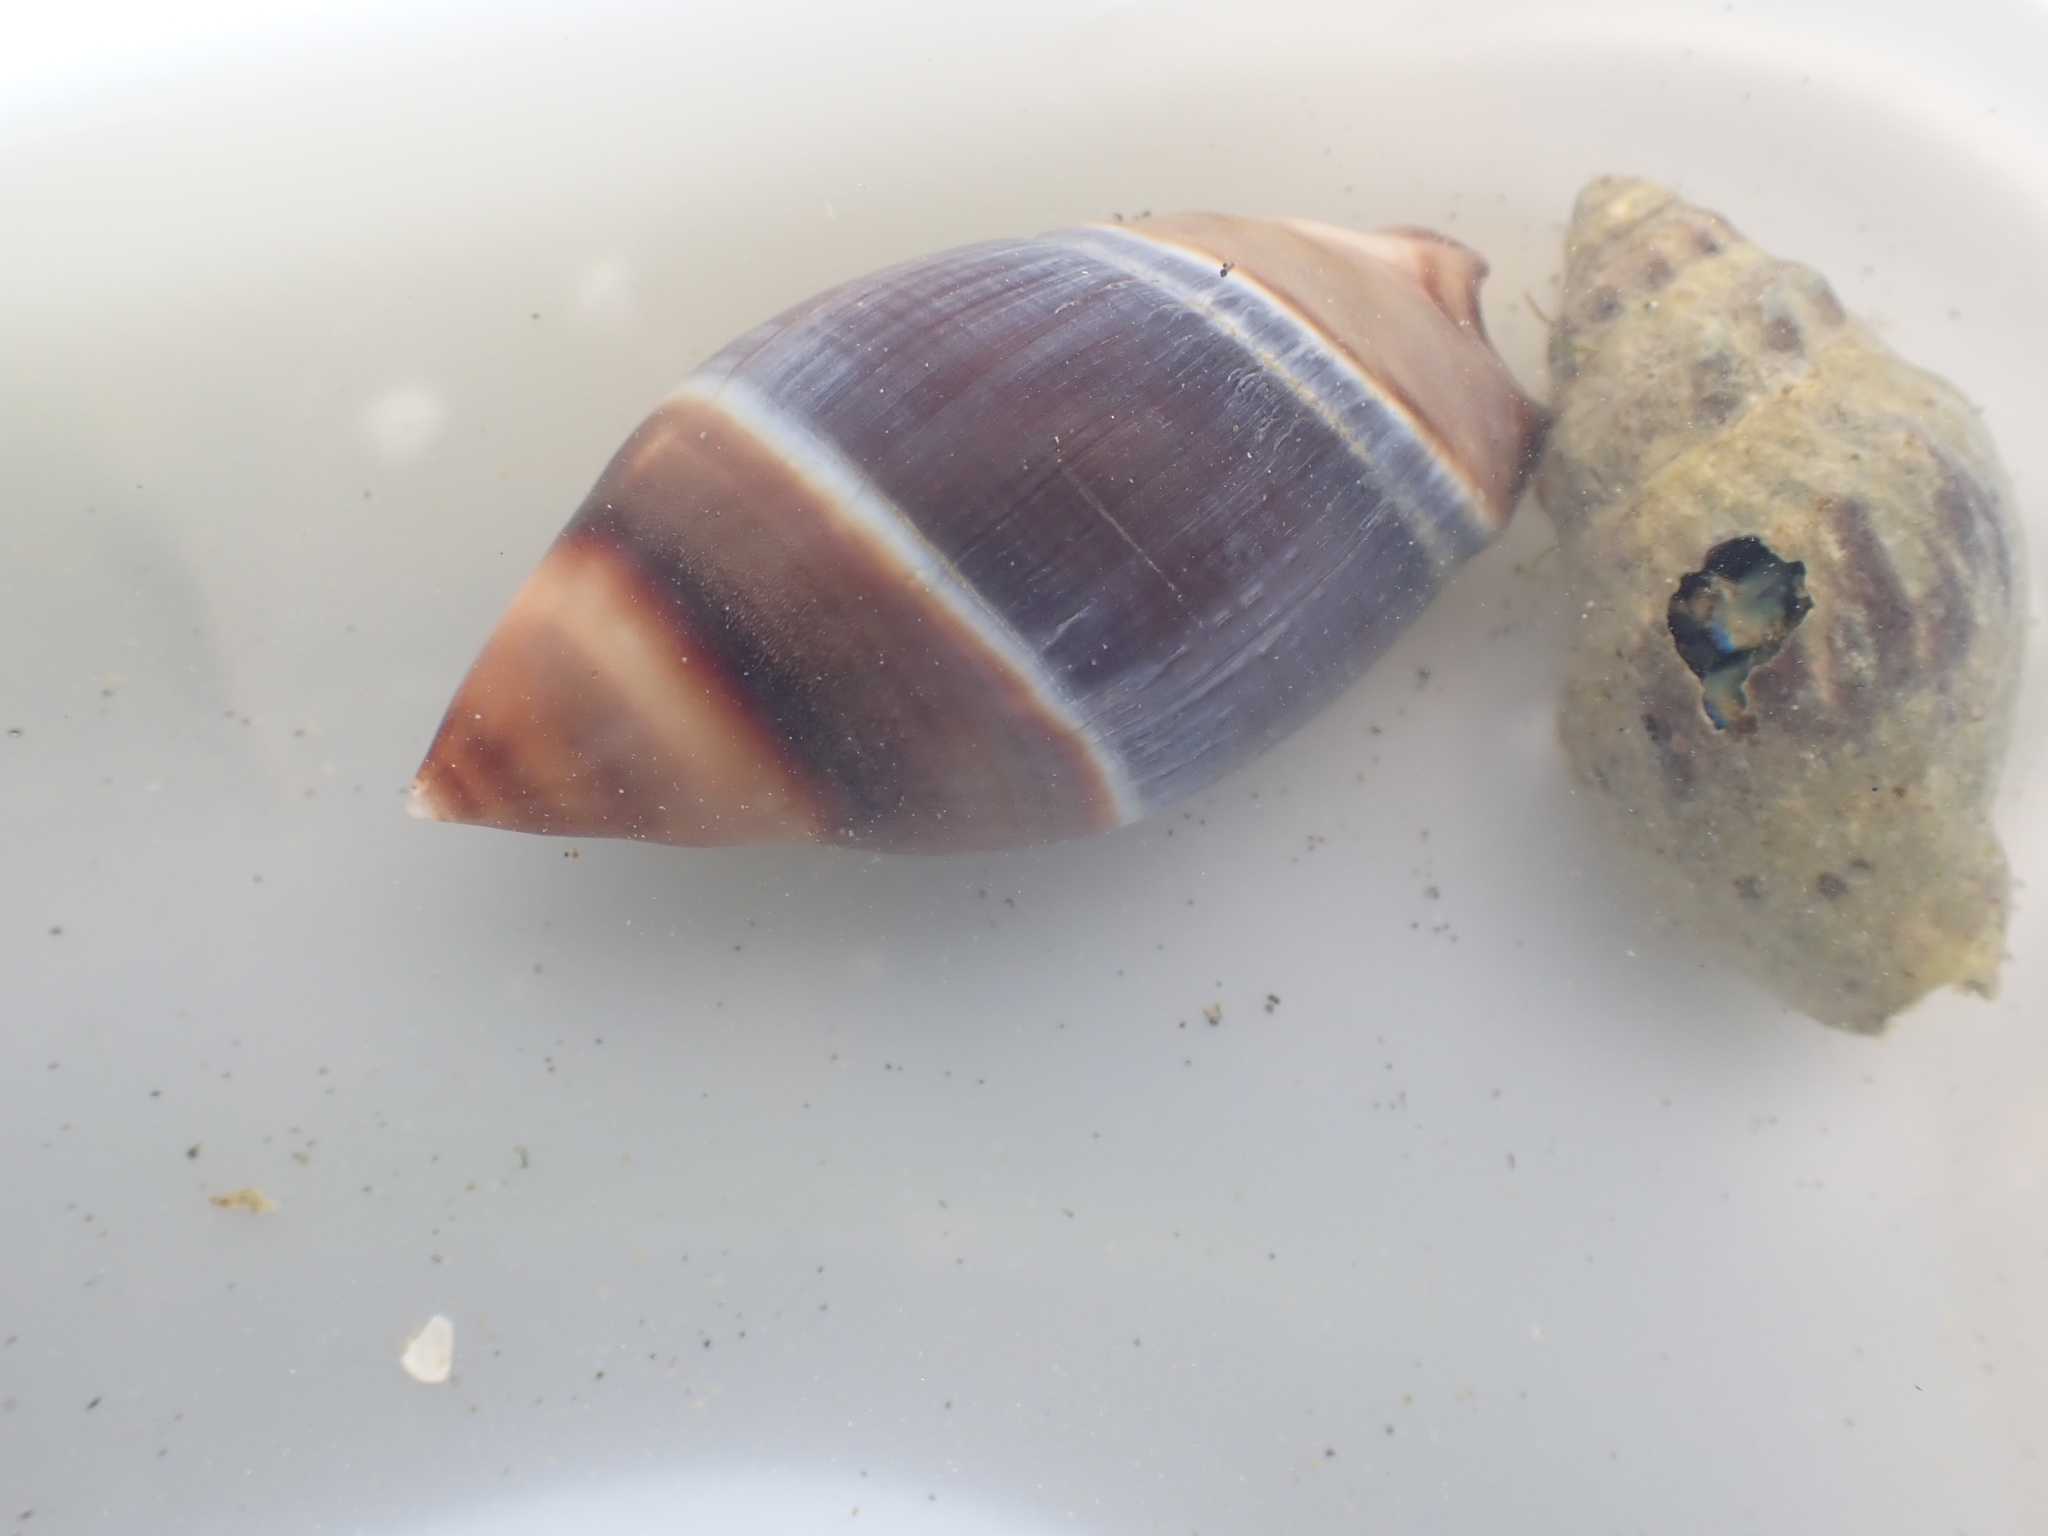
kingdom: Animalia
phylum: Mollusca
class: Gastropoda
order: Neogastropoda
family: Ancillariidae
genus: Amalda
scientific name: Amalda australis
